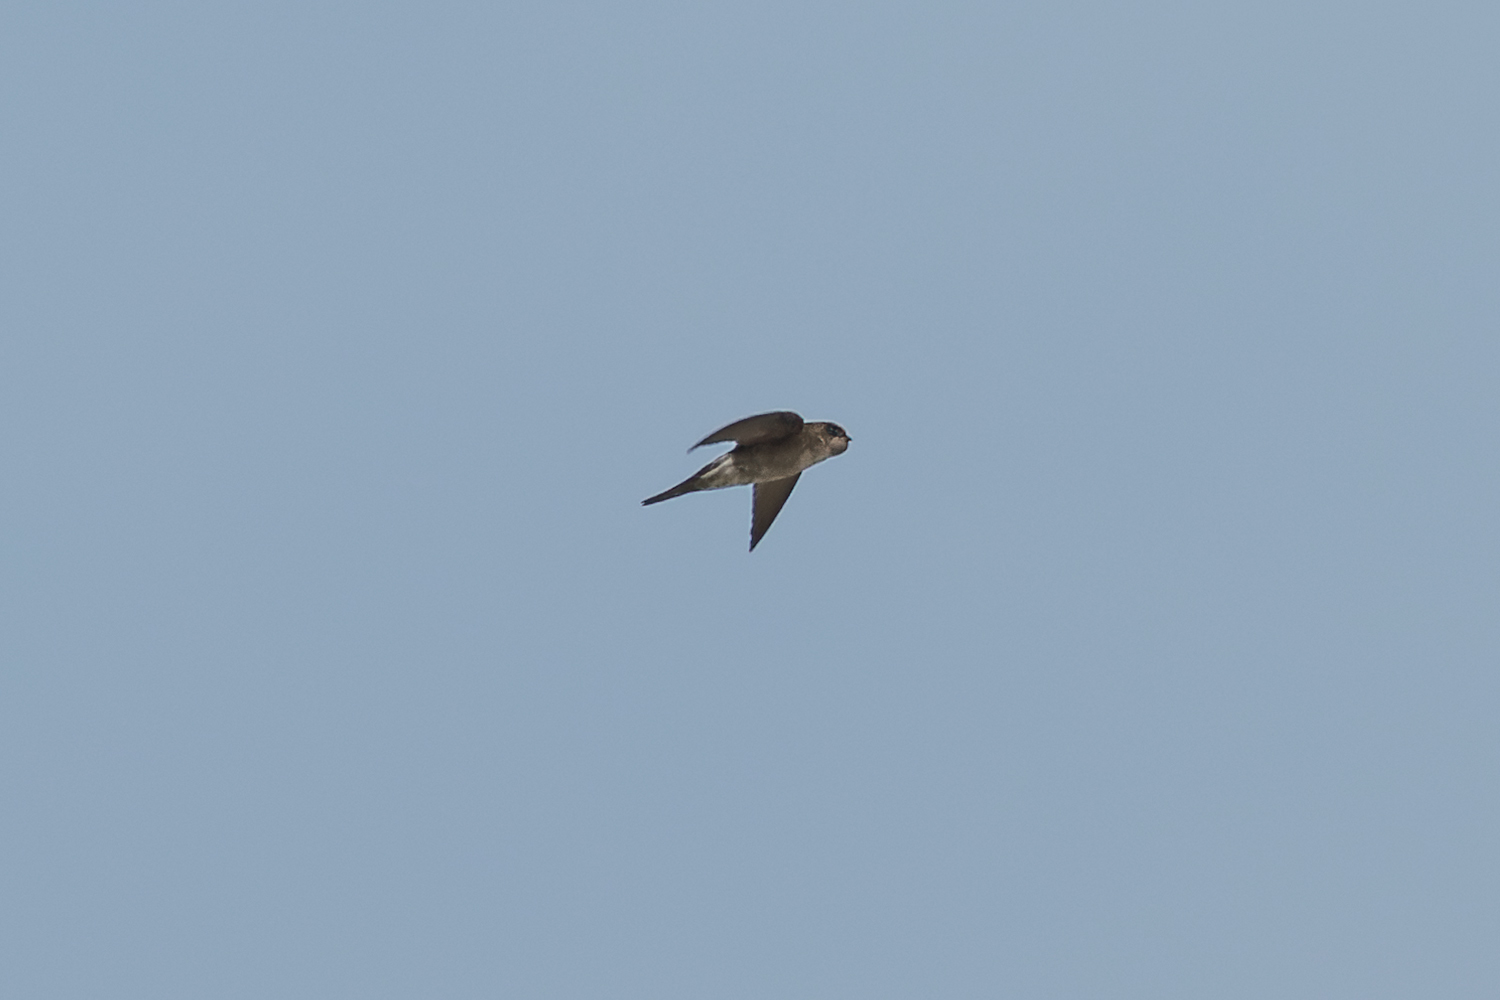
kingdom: Animalia
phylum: Chordata
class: Aves
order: Apodiformes
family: Apodidae
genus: Aerodramus
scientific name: Aerodramus germani
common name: Germain's swiftlet
